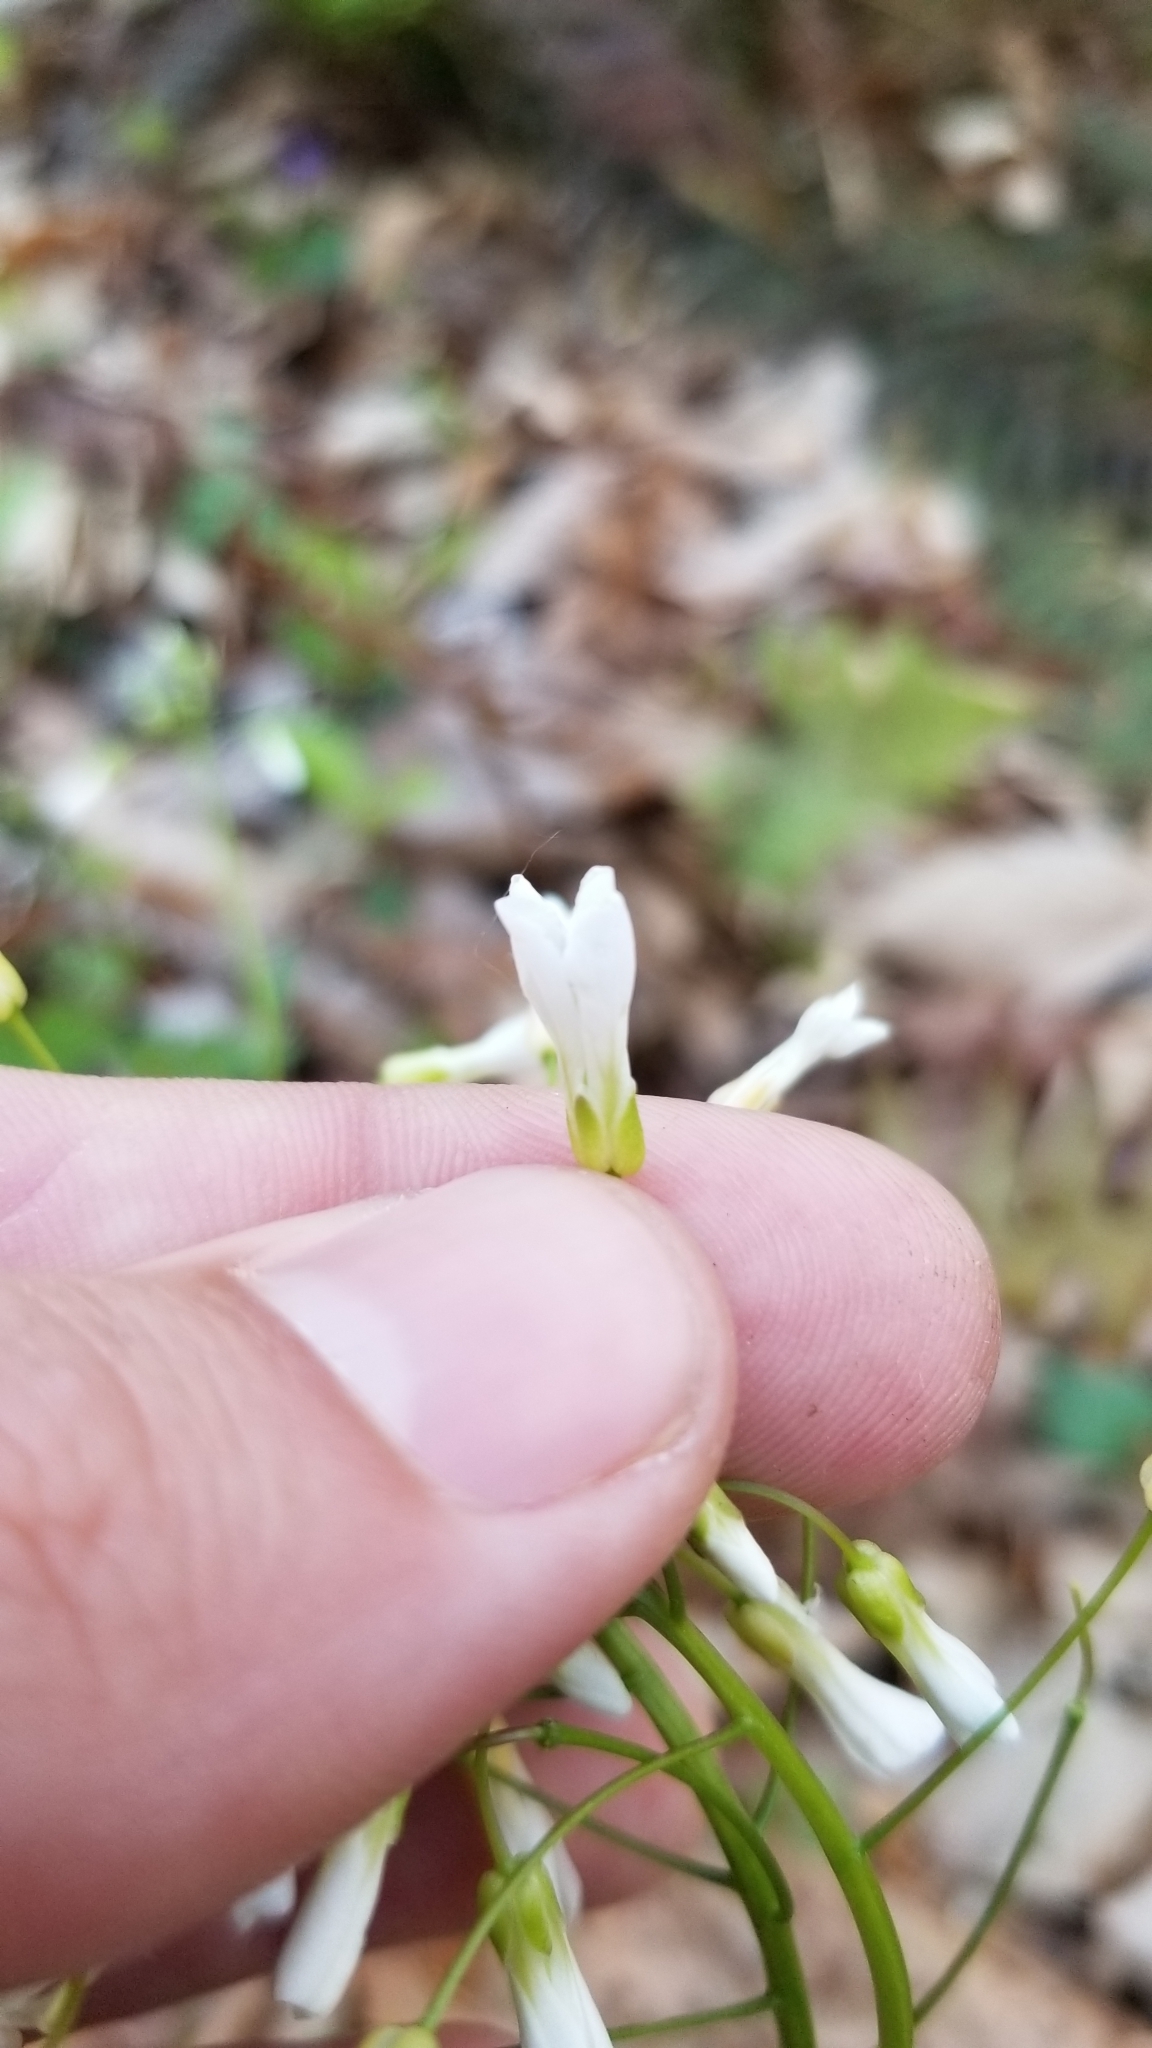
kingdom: Plantae
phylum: Tracheophyta
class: Magnoliopsida
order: Brassicales
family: Brassicaceae
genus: Cardamine
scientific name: Cardamine bulbosa
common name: Spring cress
